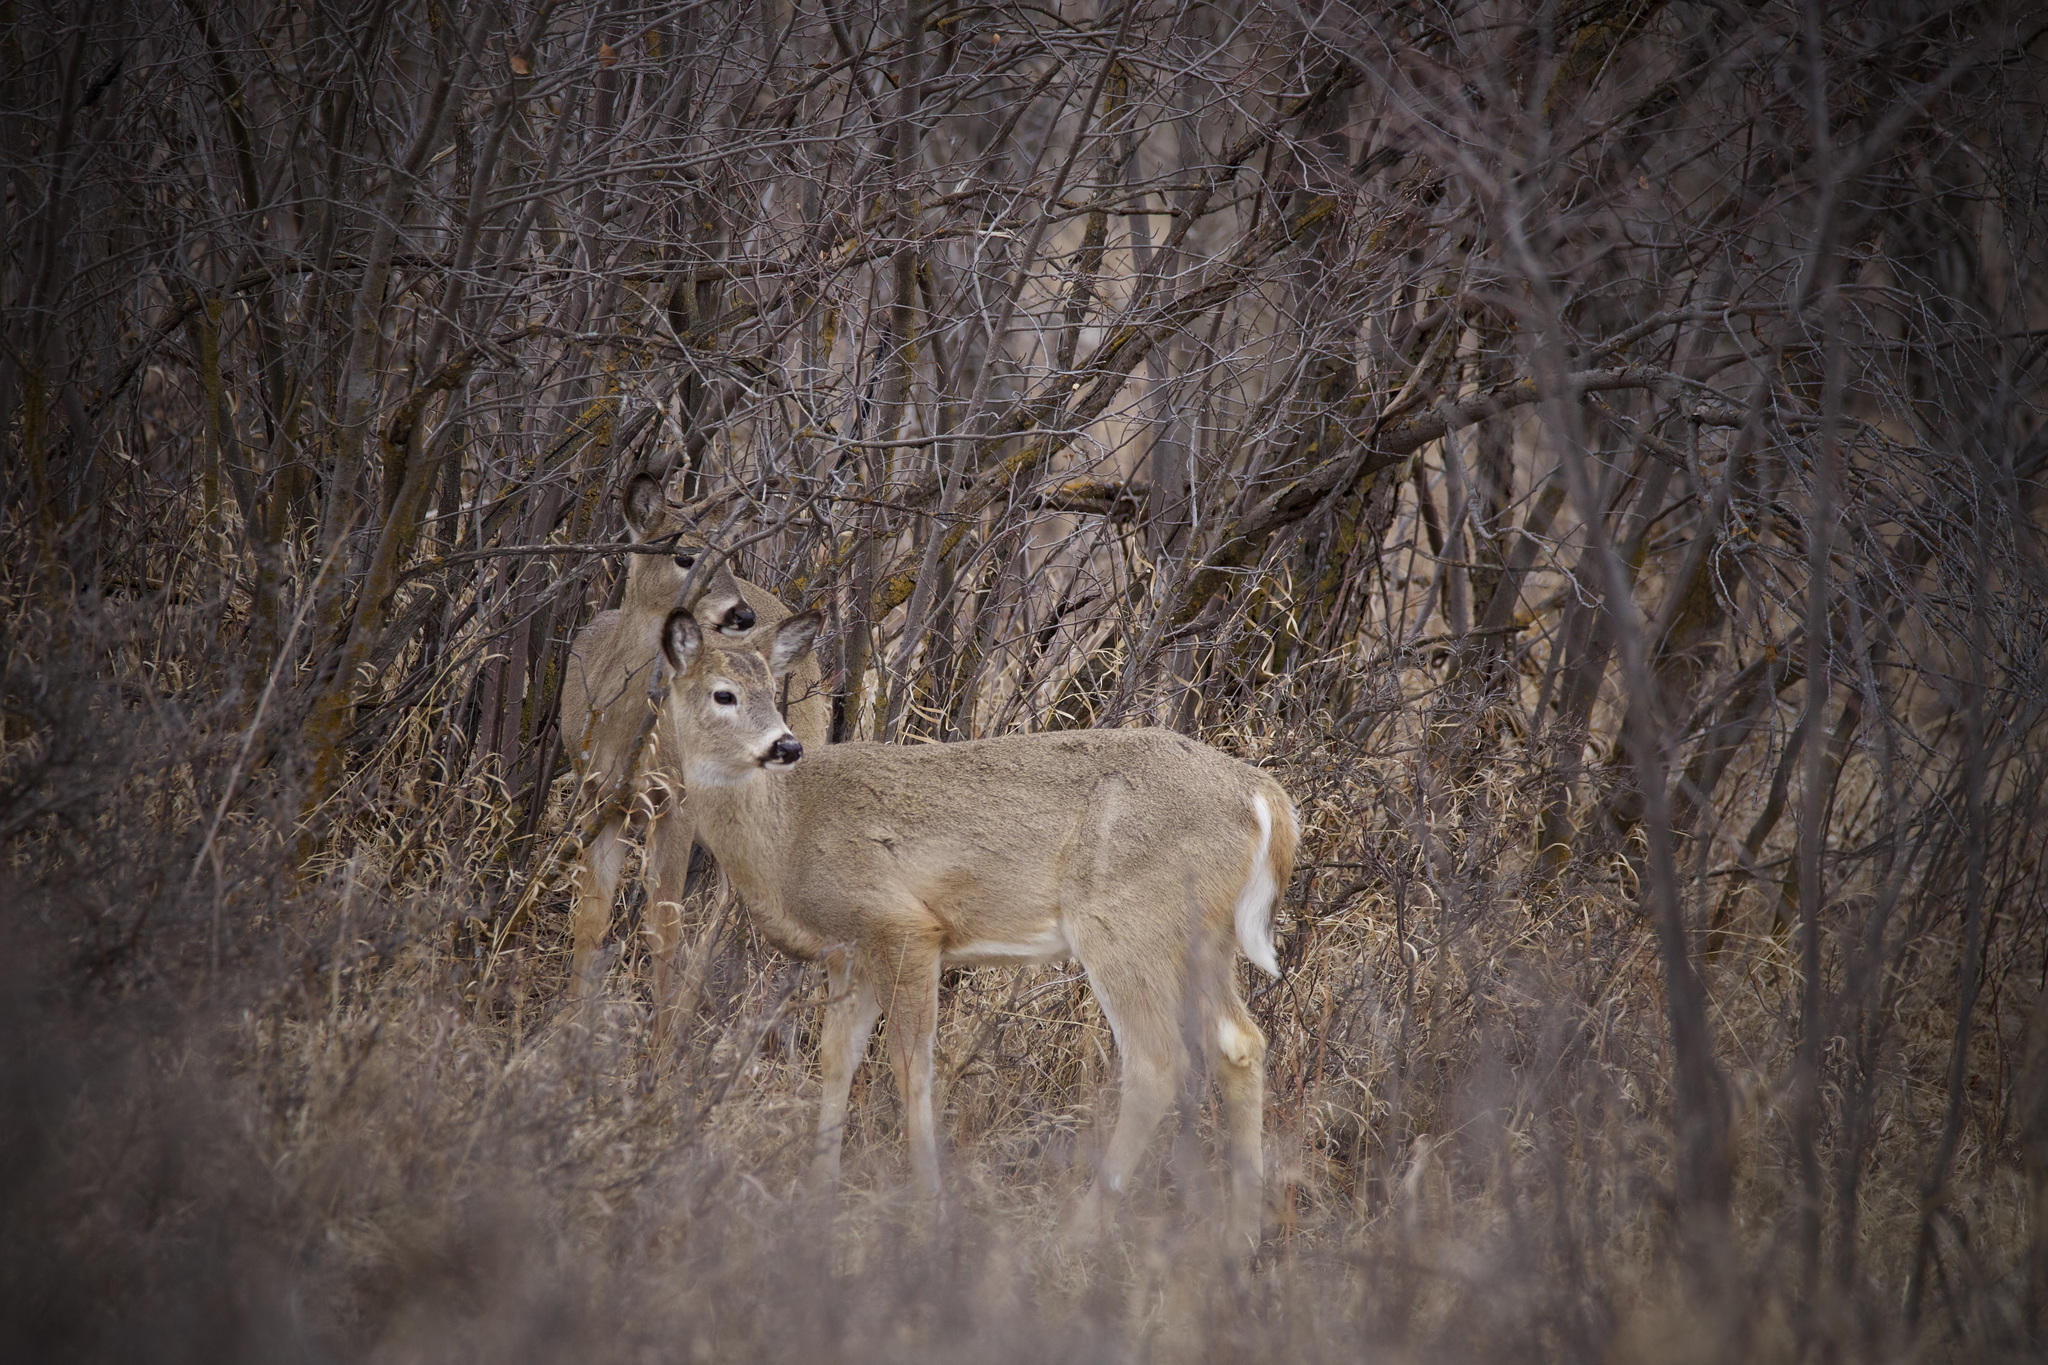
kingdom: Animalia
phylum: Chordata
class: Mammalia
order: Artiodactyla
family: Cervidae
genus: Odocoileus
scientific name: Odocoileus virginianus
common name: White-tailed deer
